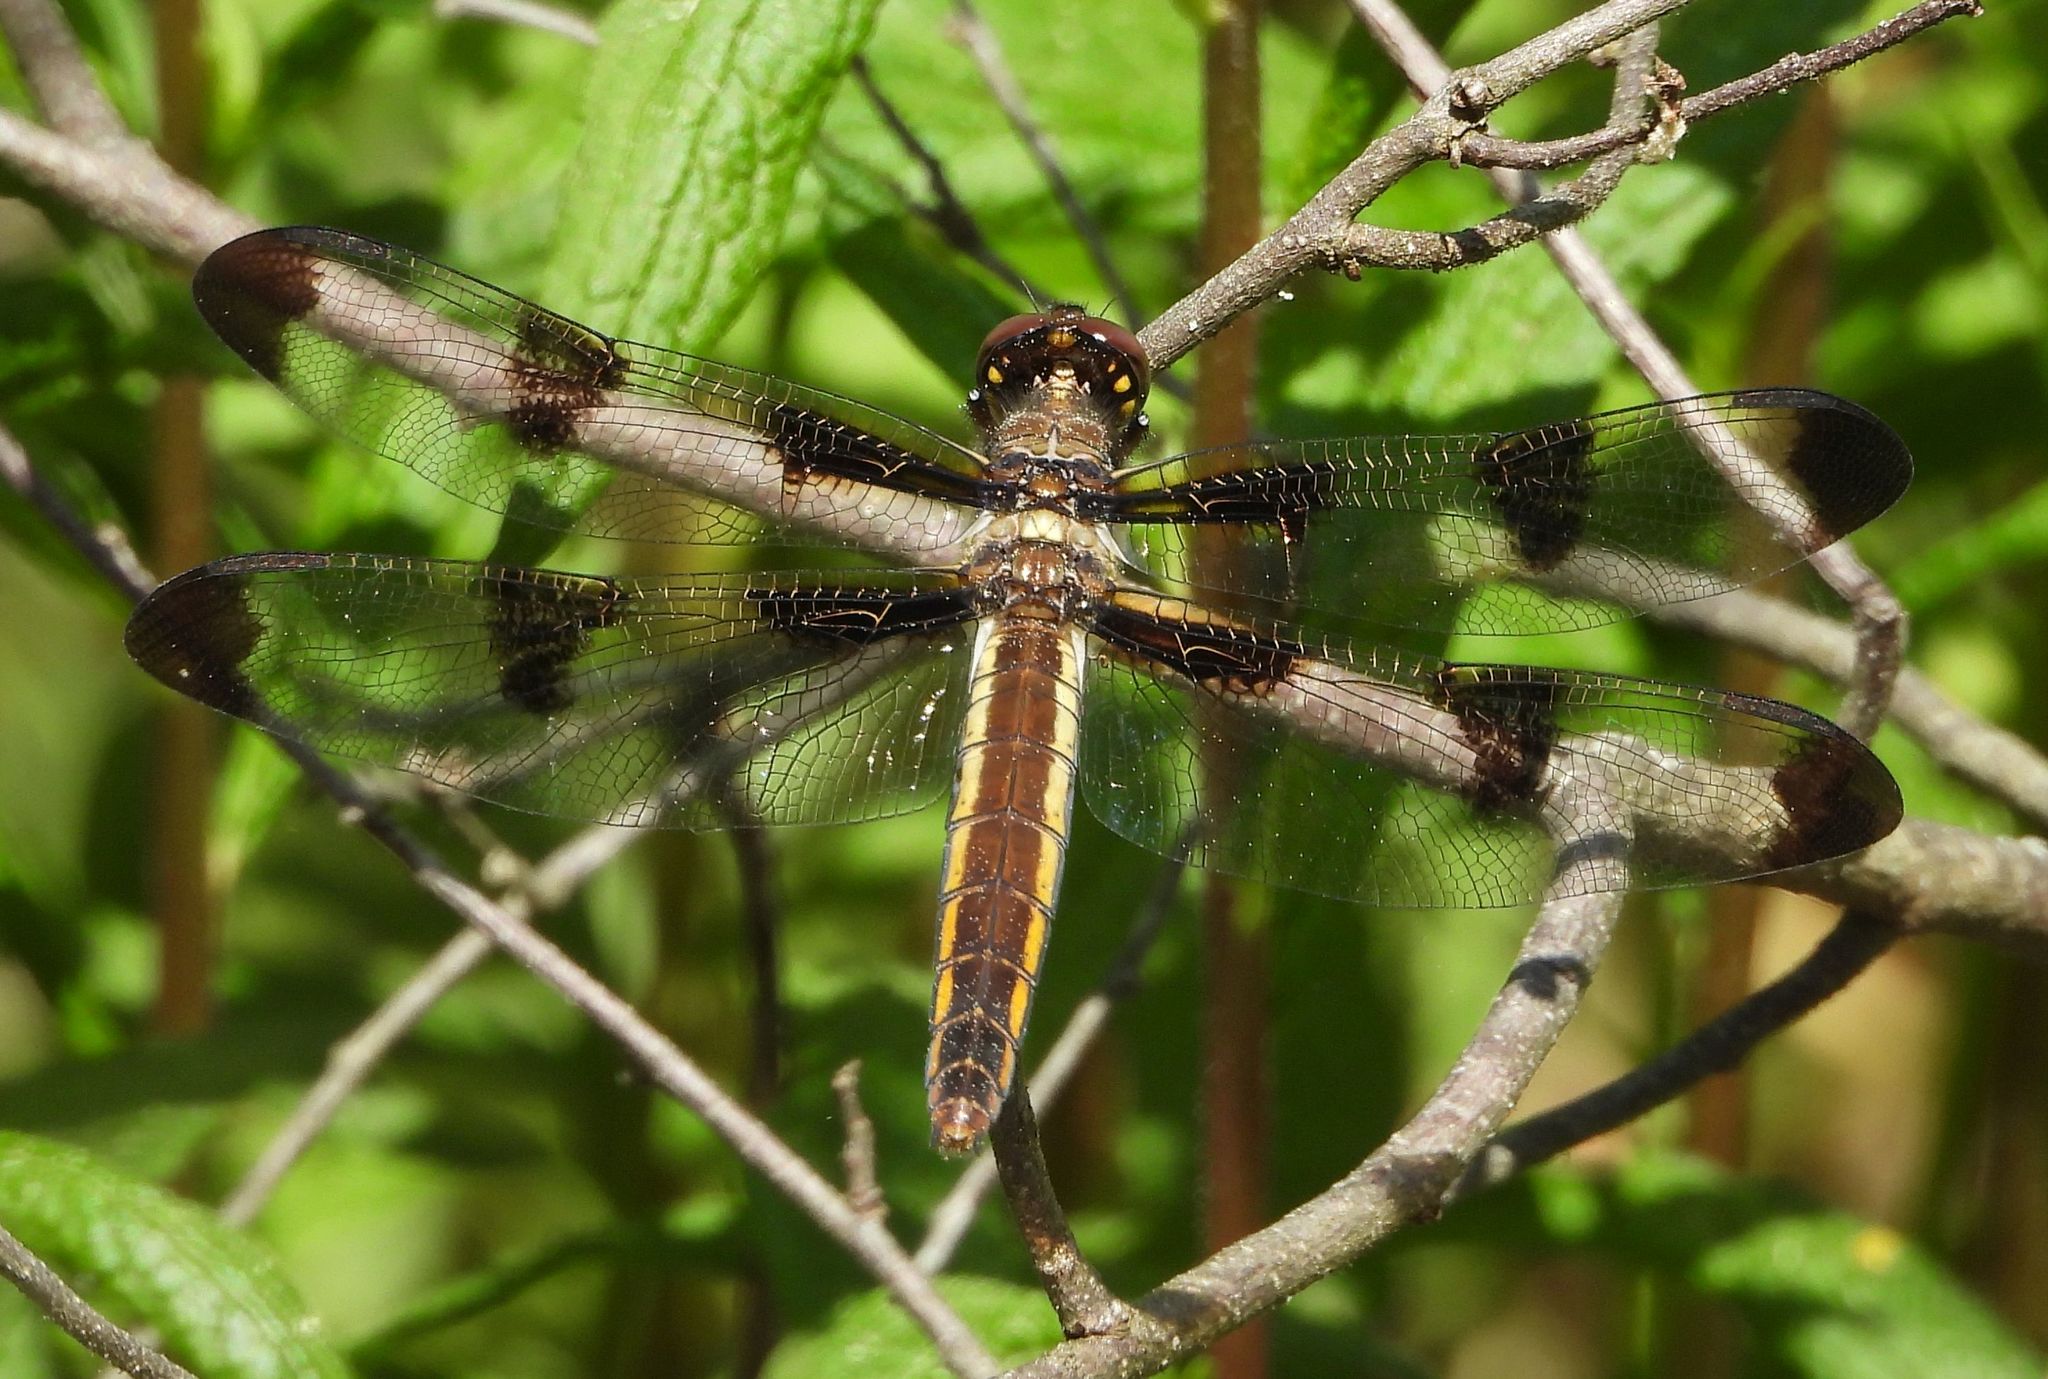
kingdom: Animalia
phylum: Arthropoda
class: Insecta
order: Odonata
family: Libellulidae
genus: Libellula
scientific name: Libellula pulchella
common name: Twelve-spotted skimmer
